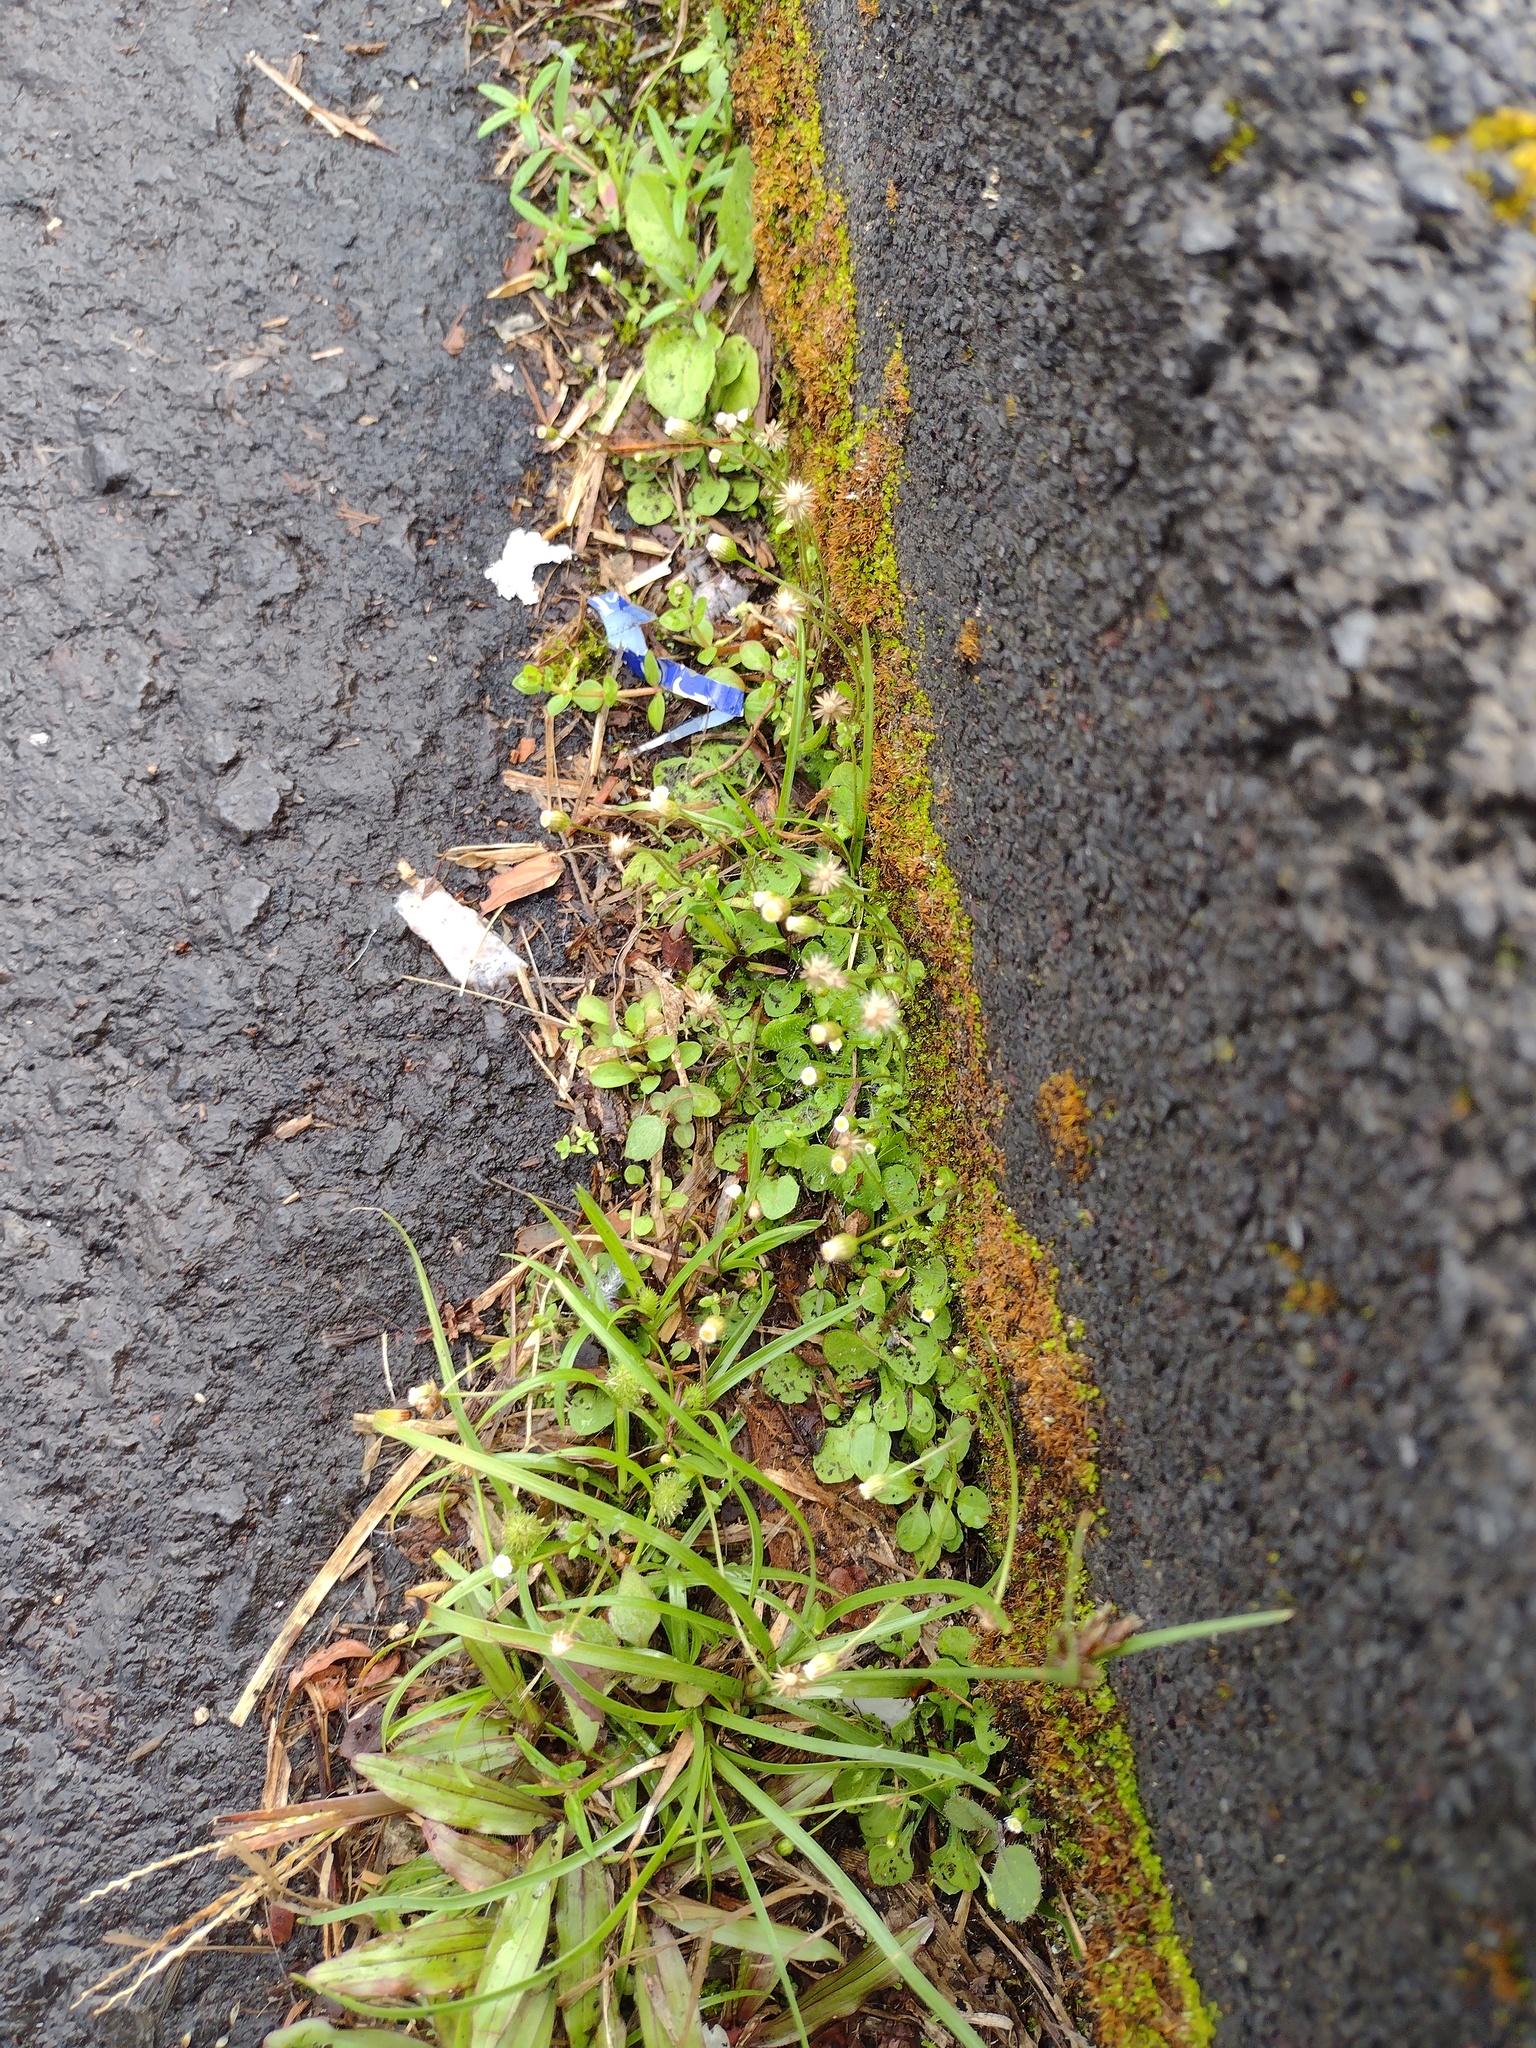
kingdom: Plantae
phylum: Tracheophyta
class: Magnoliopsida
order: Asterales
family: Asteraceae
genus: Erigeron
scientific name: Erigeron bellioides
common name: Bellorita
